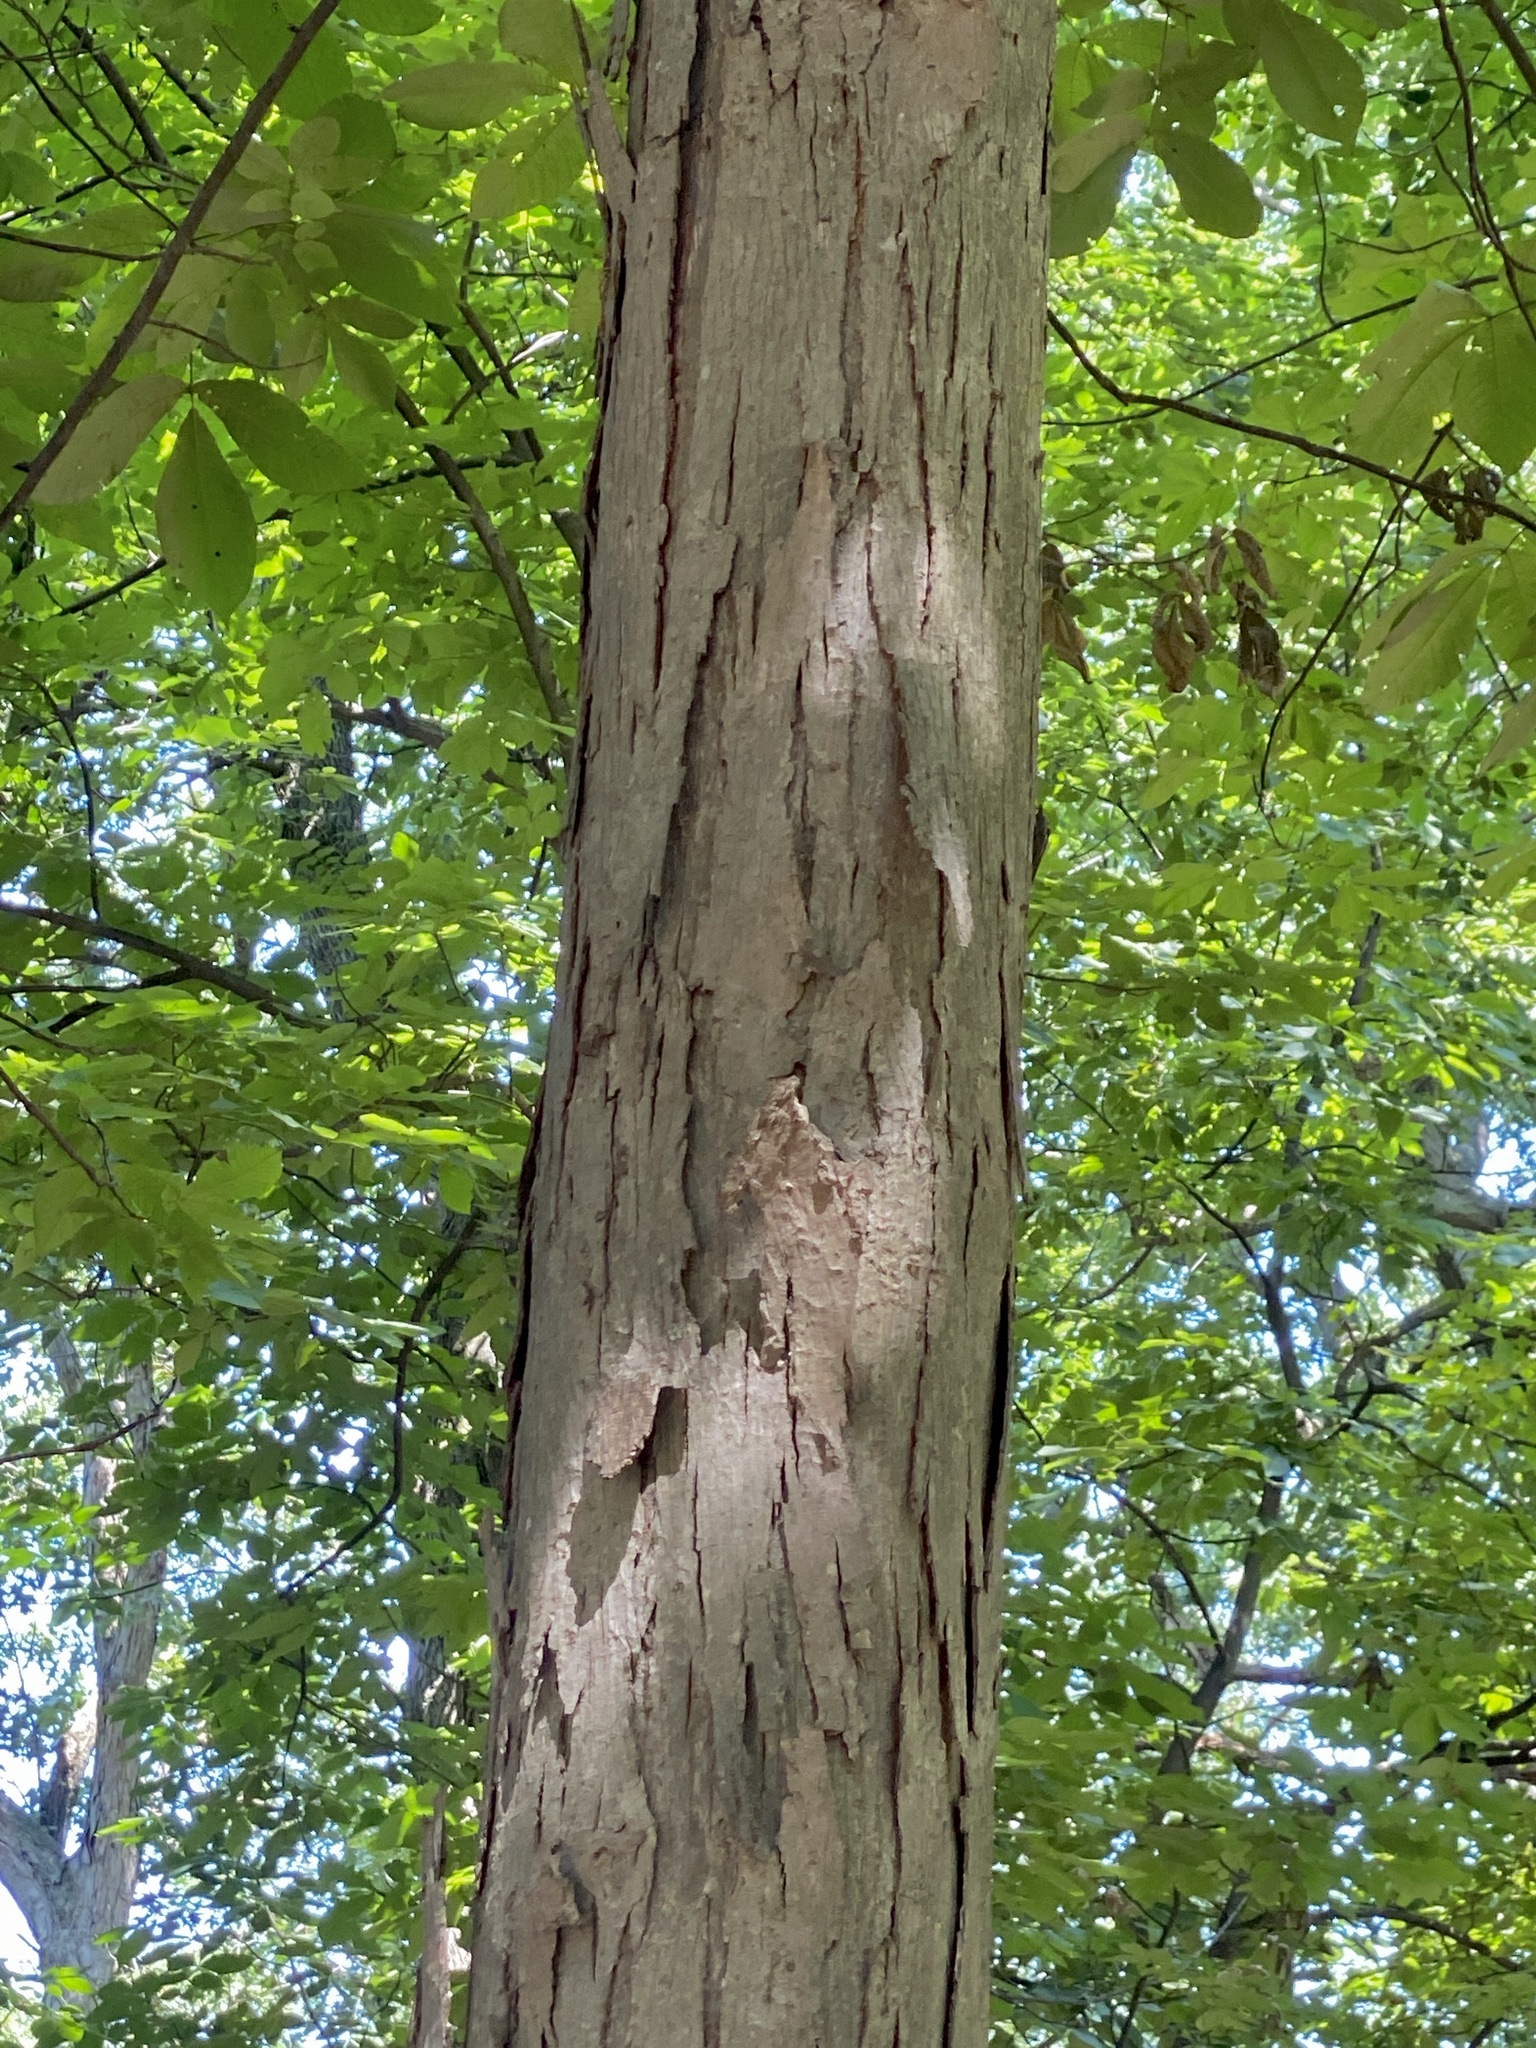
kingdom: Plantae
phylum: Tracheophyta
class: Magnoliopsida
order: Fagales
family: Juglandaceae
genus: Carya
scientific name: Carya ovata
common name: Shagbark hickory
